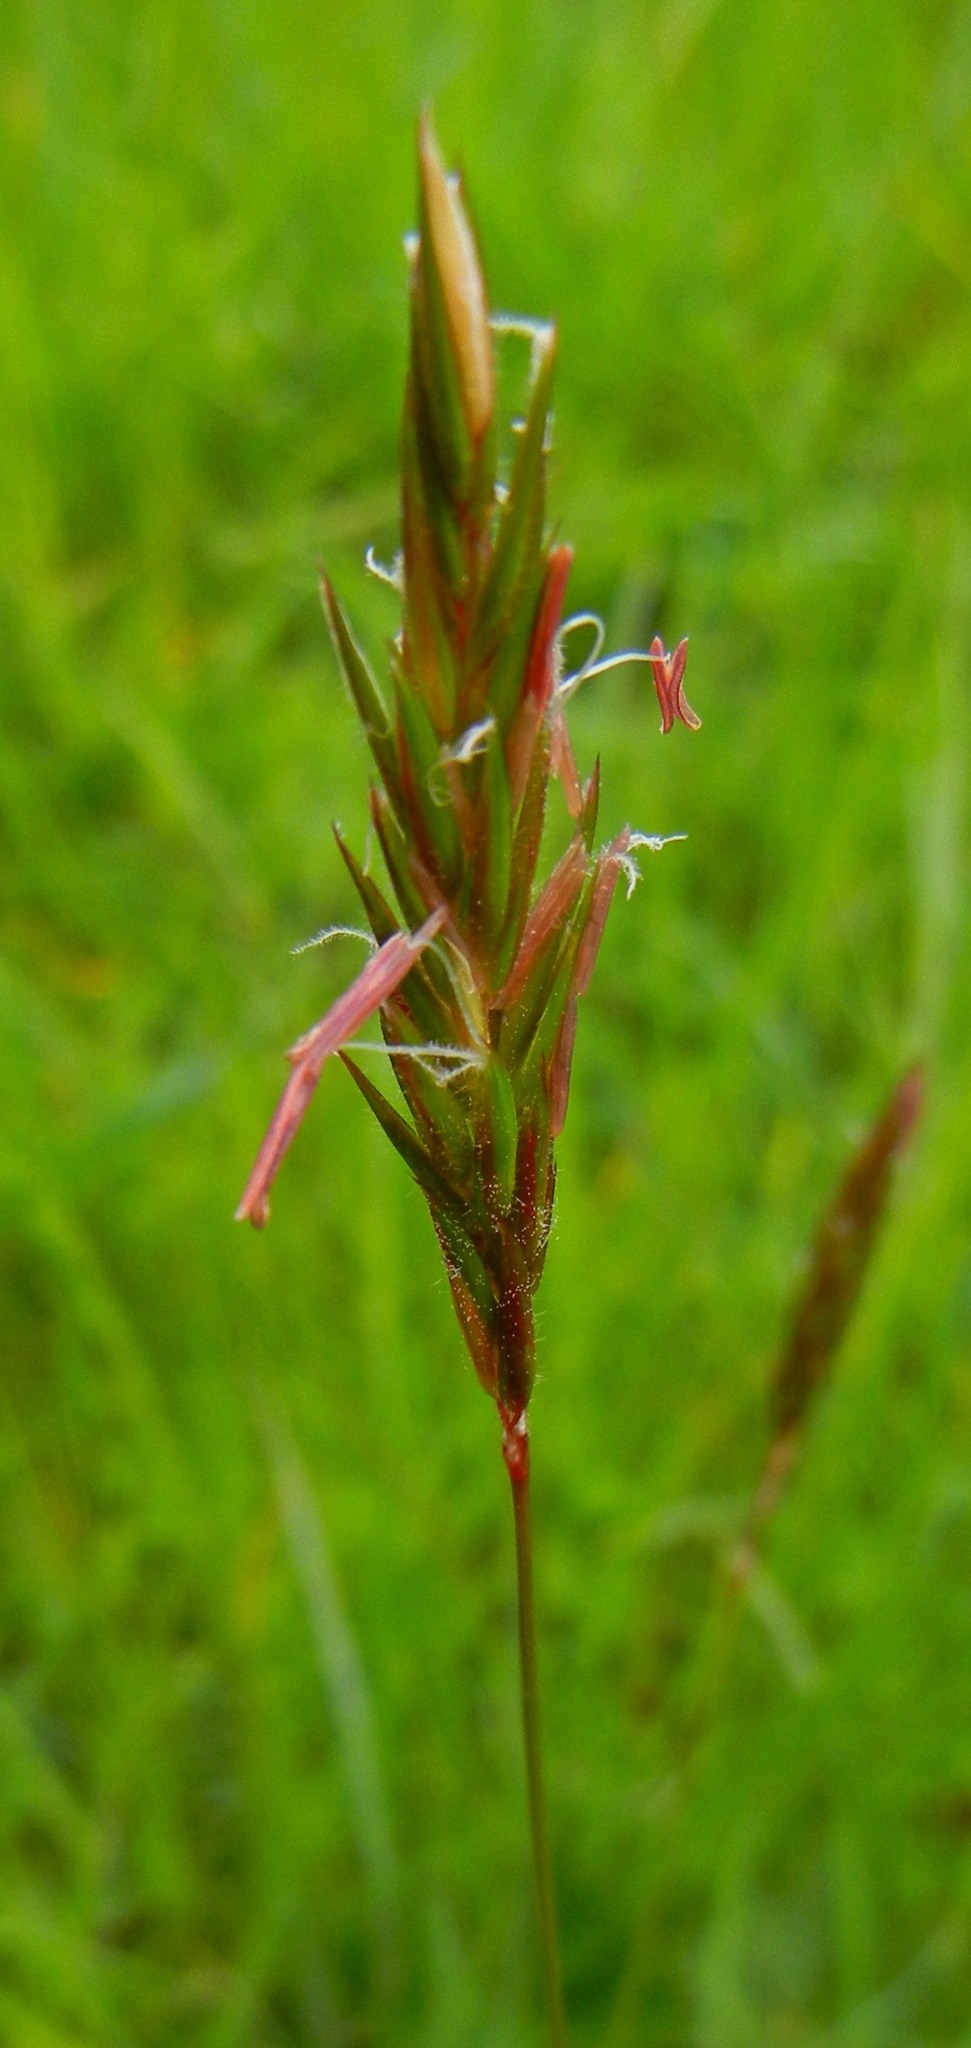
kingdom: Plantae
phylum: Tracheophyta
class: Liliopsida
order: Poales
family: Poaceae
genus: Anthoxanthum
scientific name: Anthoxanthum odoratum
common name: Sweet vernalgrass
